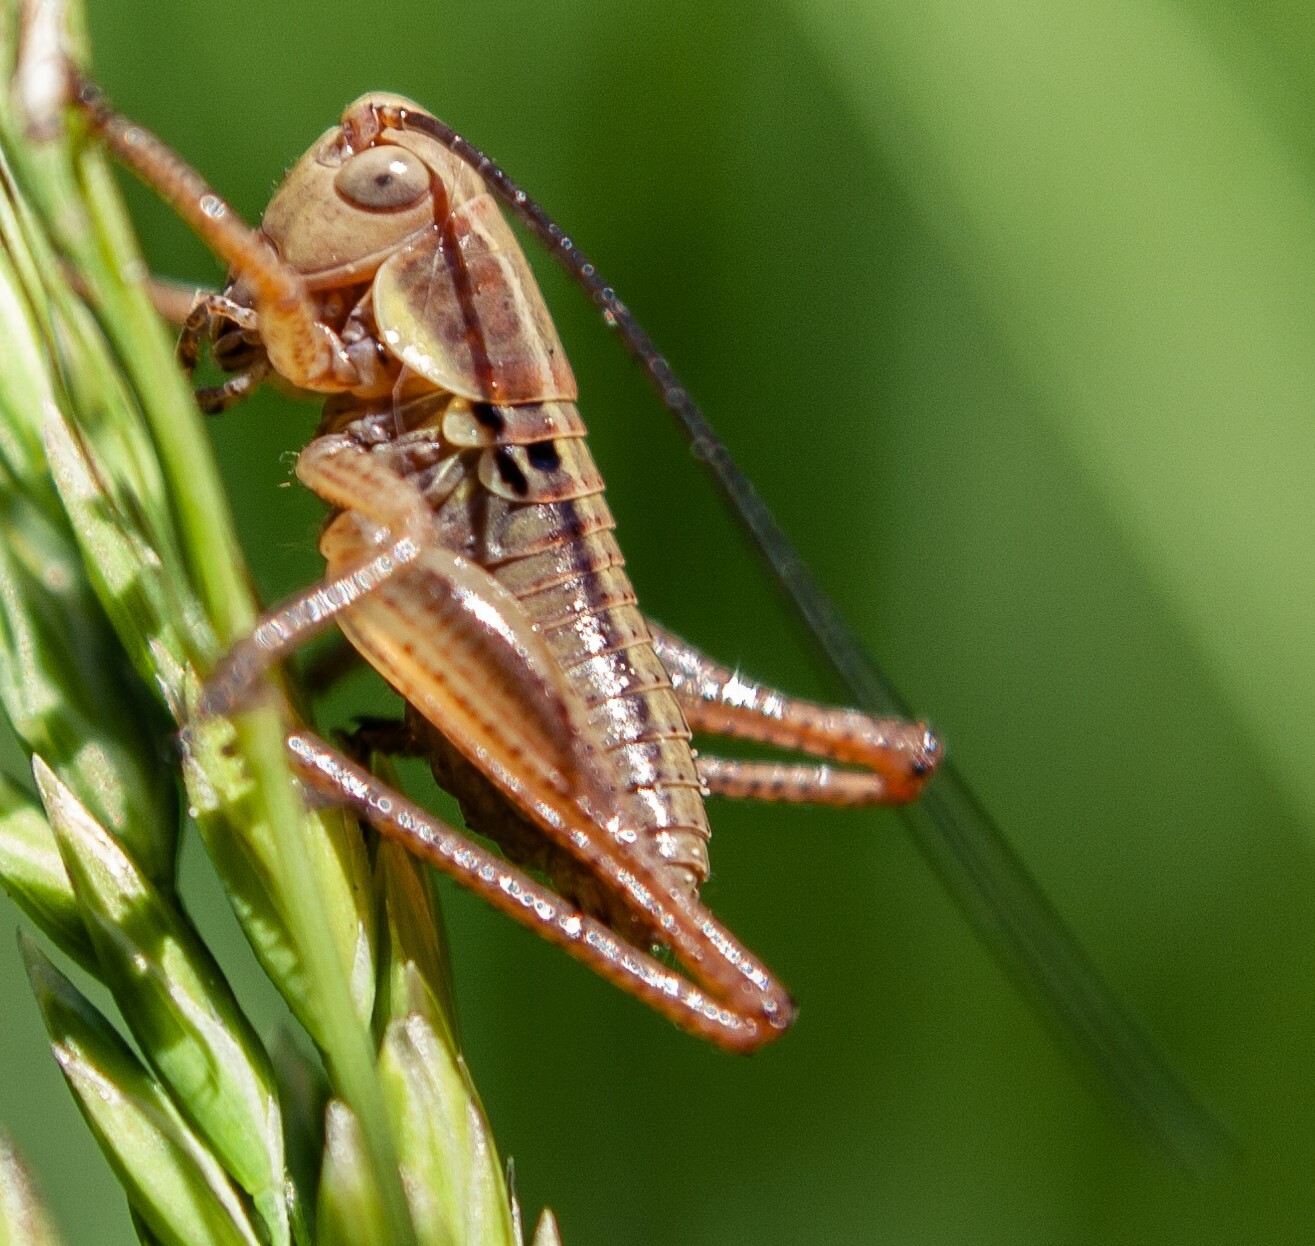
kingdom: Animalia
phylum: Arthropoda
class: Insecta
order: Orthoptera
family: Tettigoniidae
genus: Roeseliana
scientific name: Roeseliana roeselii
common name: Roesel's bush cricket
